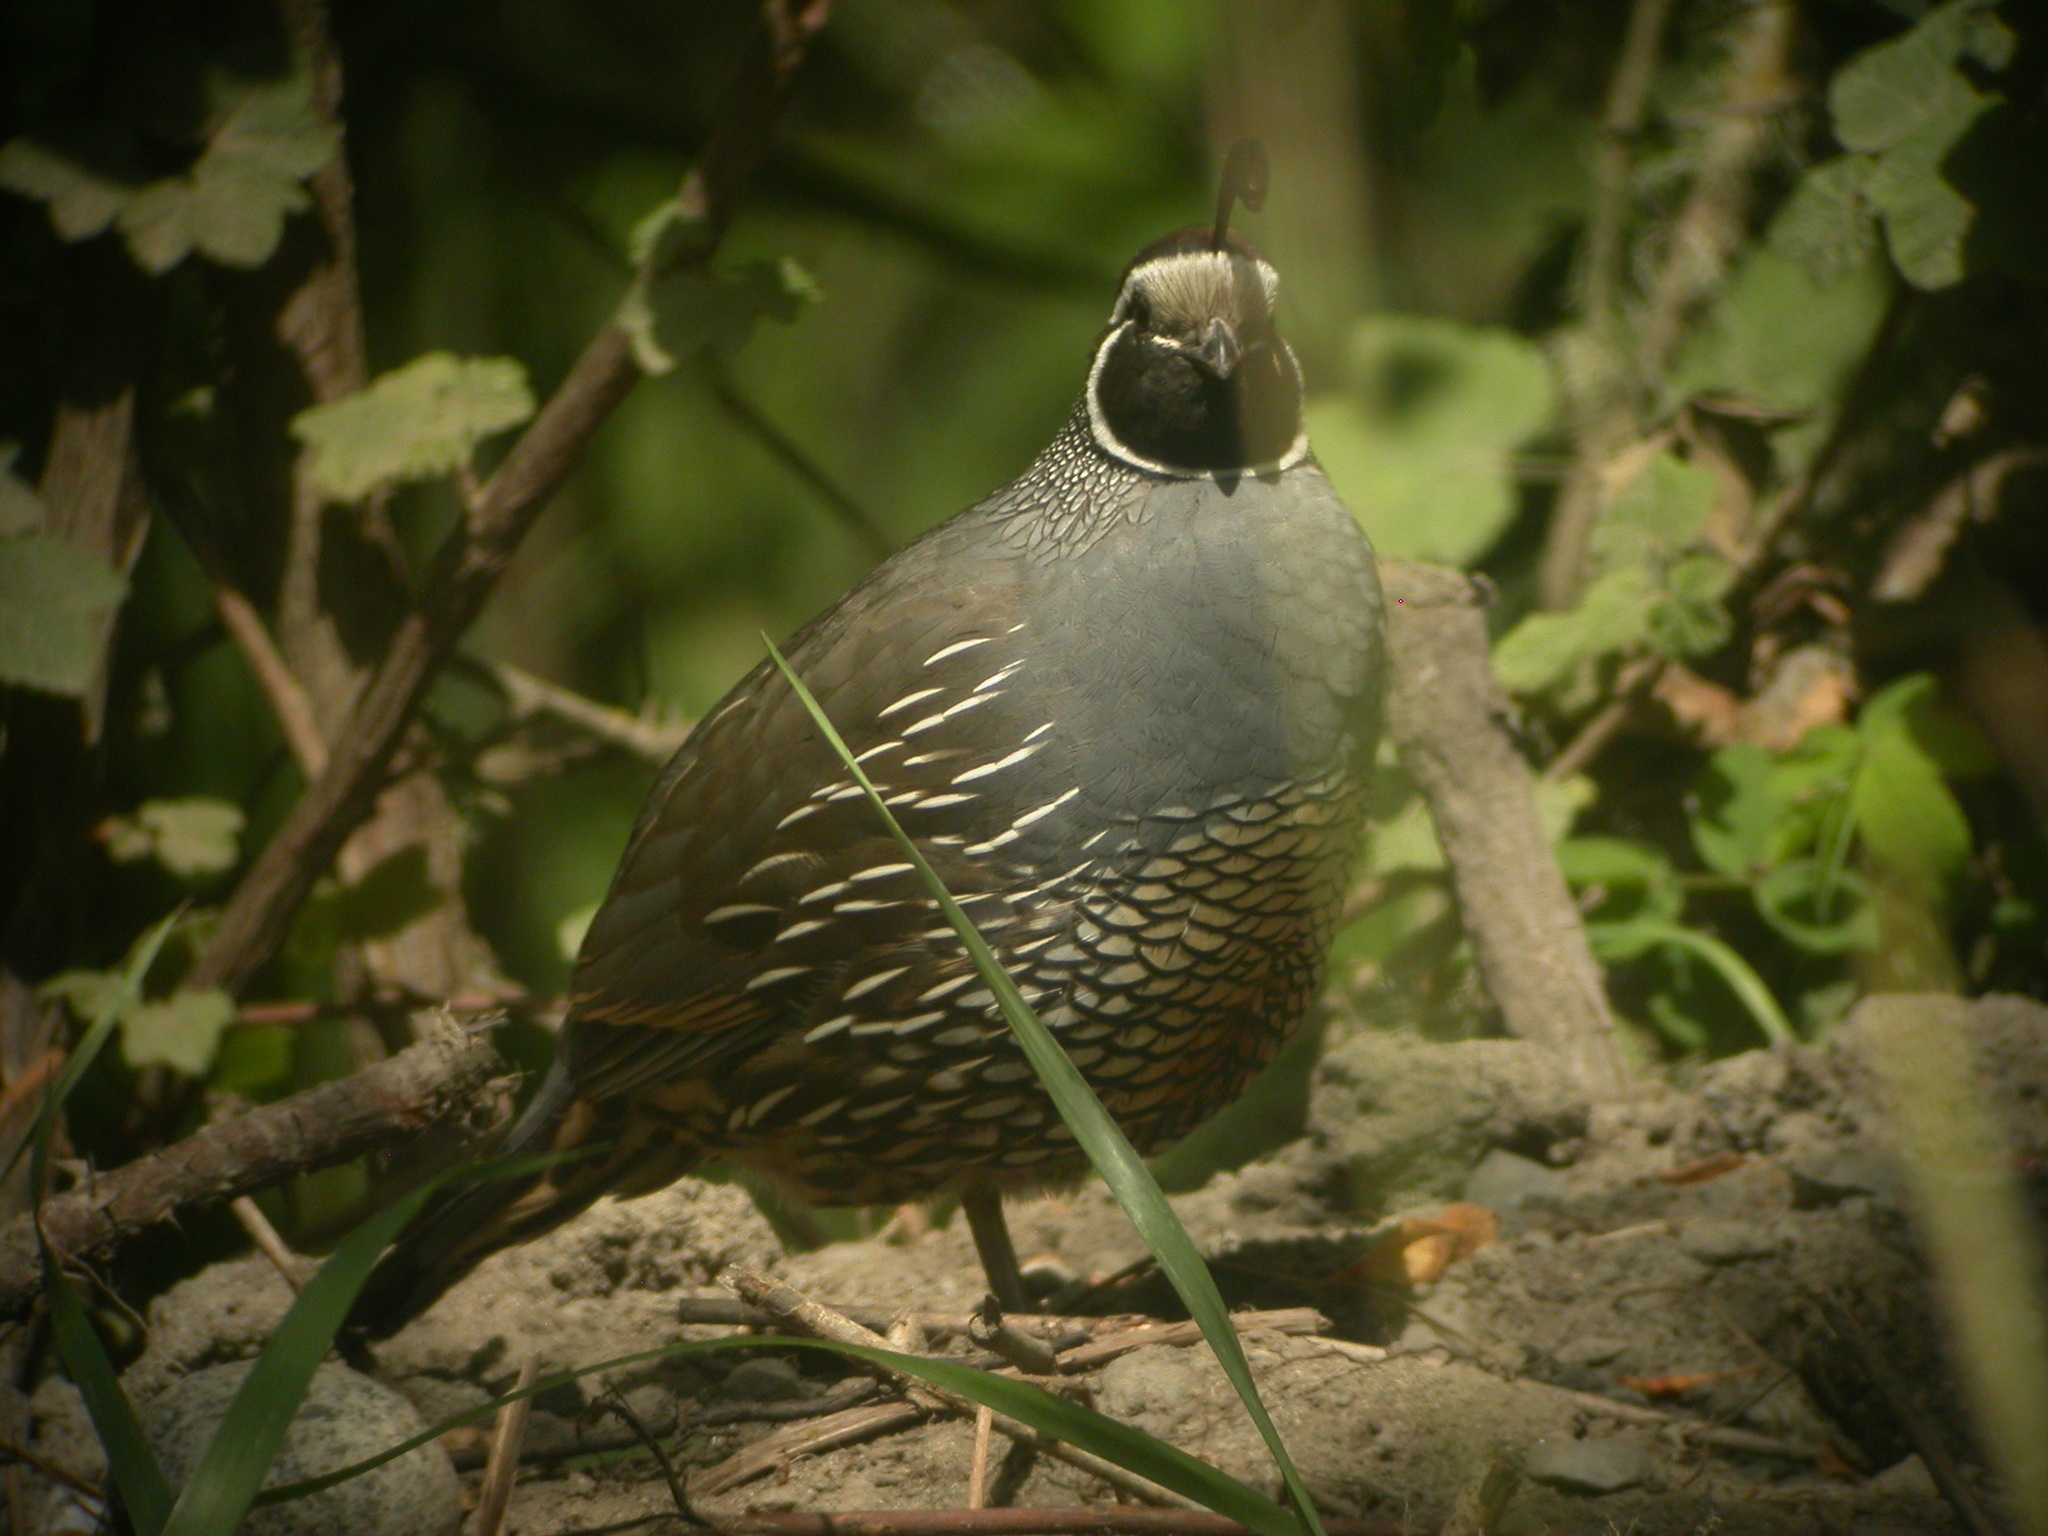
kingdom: Animalia
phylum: Chordata
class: Aves
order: Galliformes
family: Odontophoridae
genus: Callipepla
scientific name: Callipepla californica
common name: California quail
